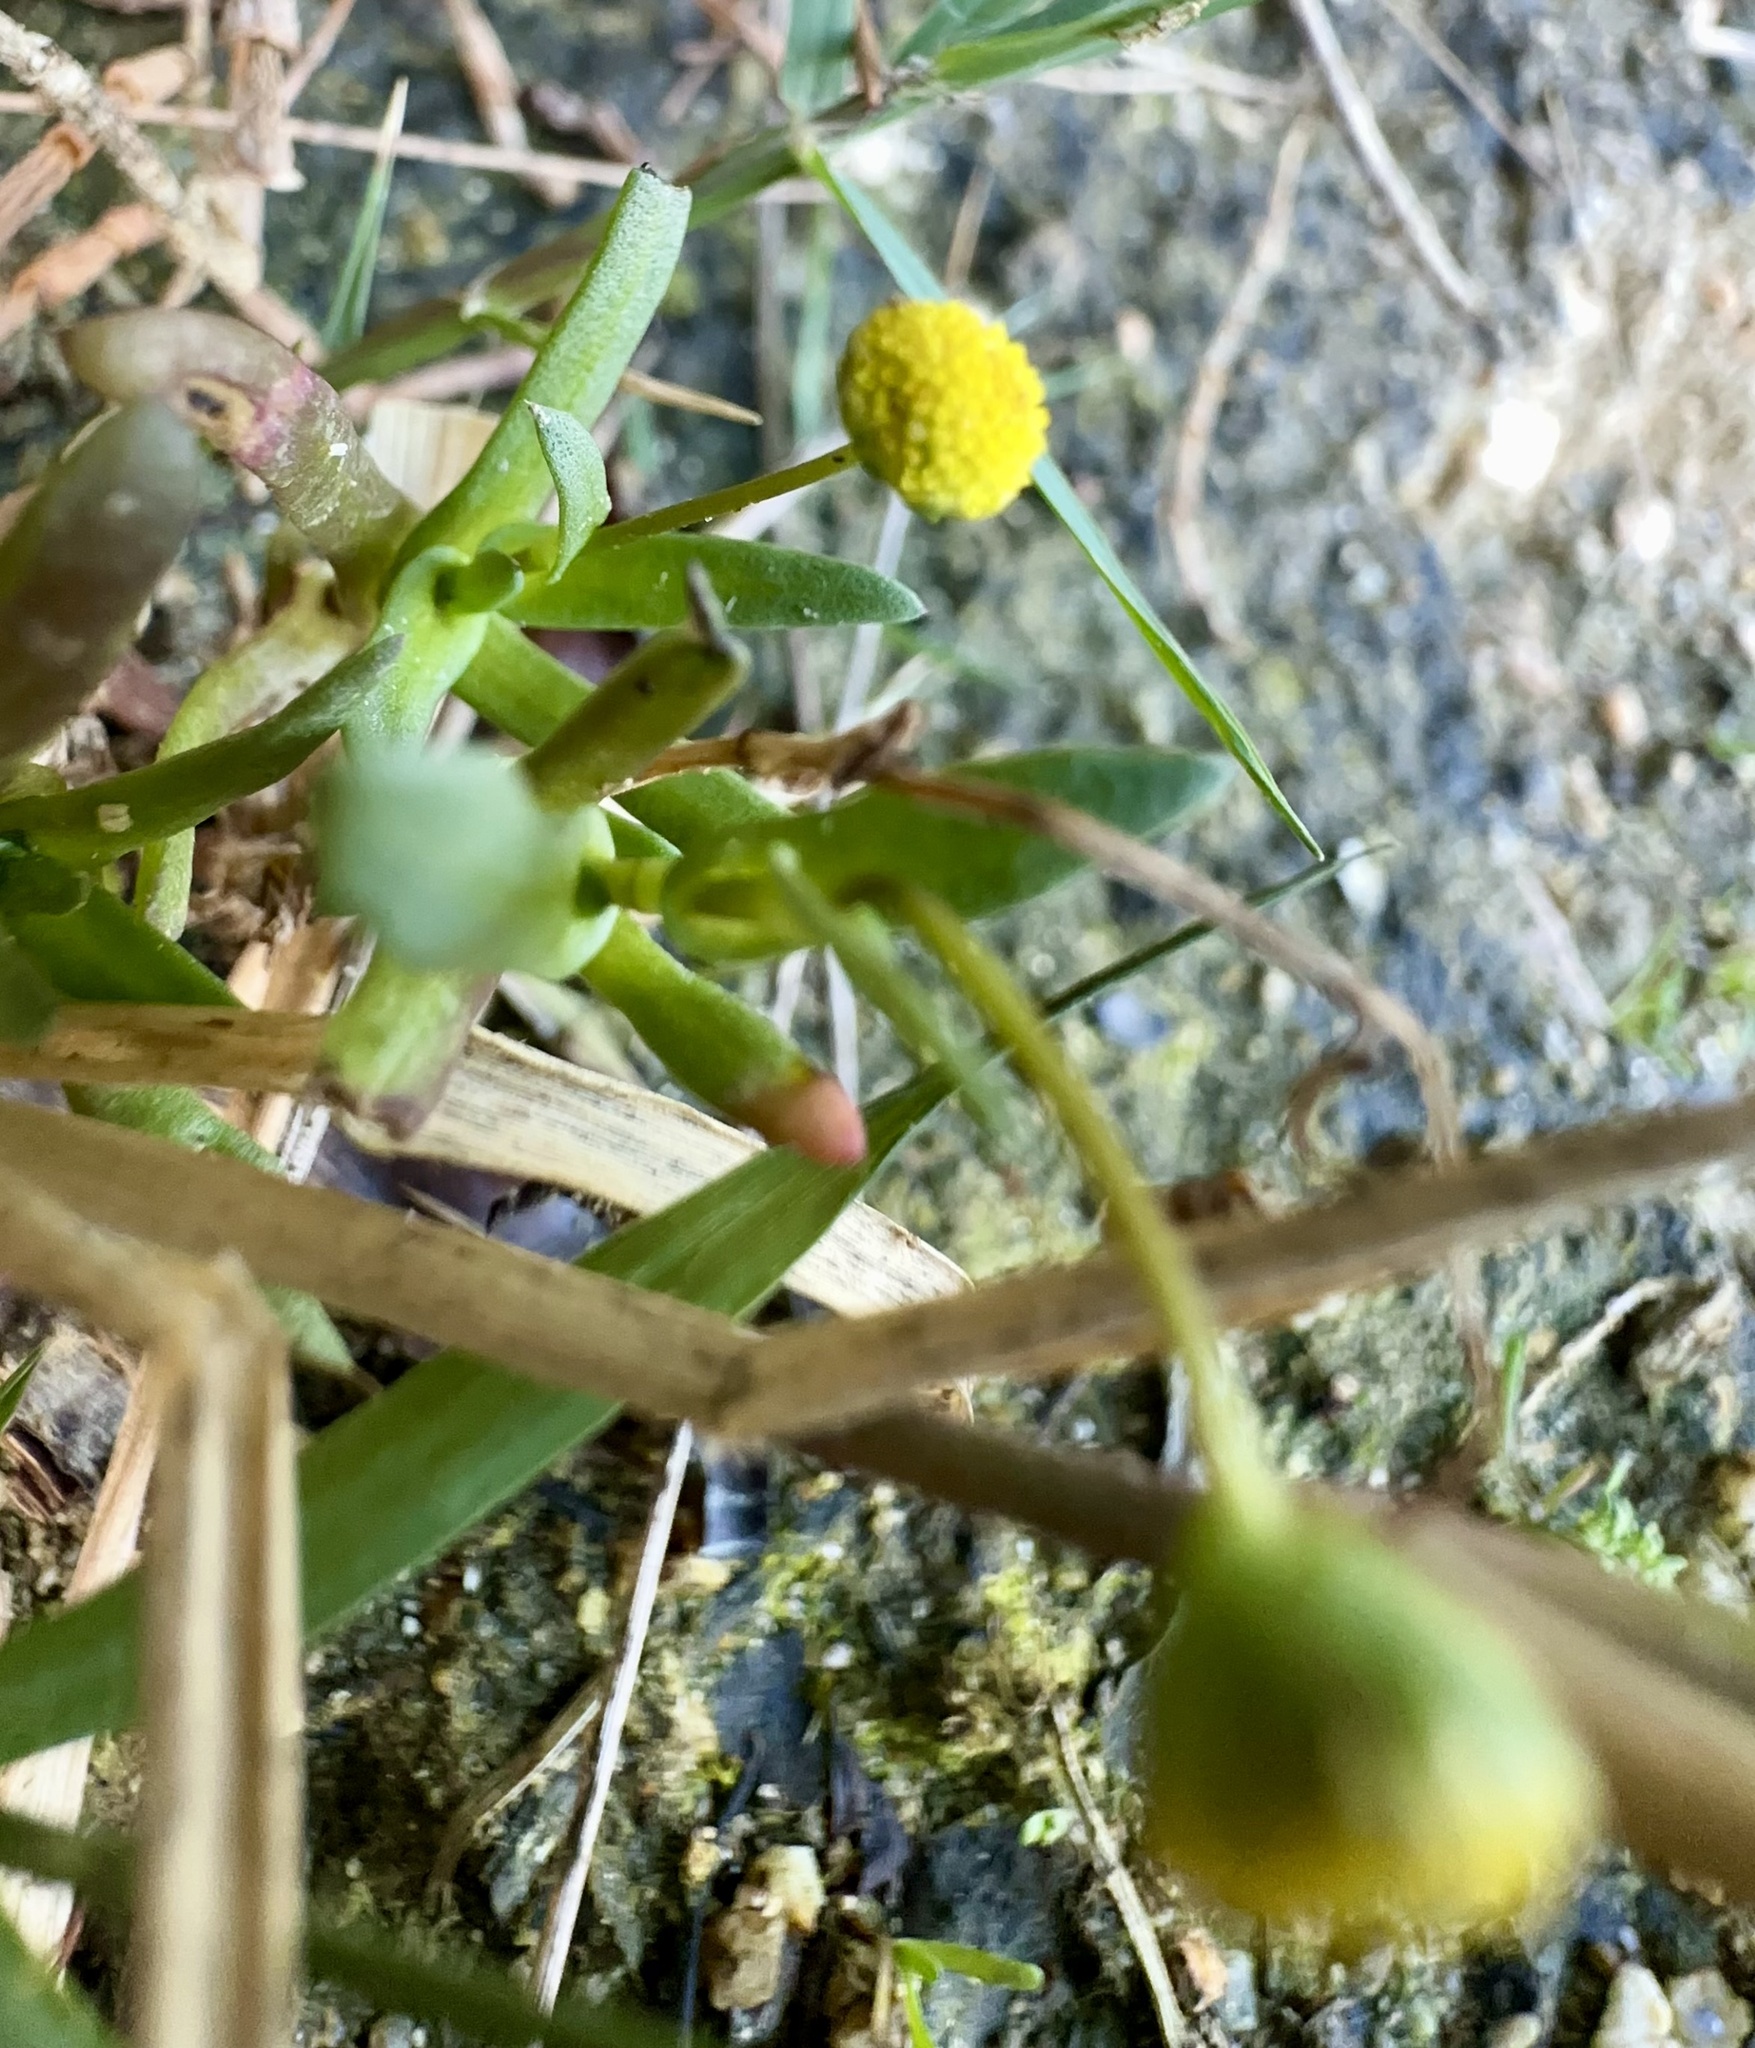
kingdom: Plantae
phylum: Tracheophyta
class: Magnoliopsida
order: Asterales
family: Asteraceae
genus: Cotula
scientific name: Cotula coronopifolia
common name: Buttonweed
